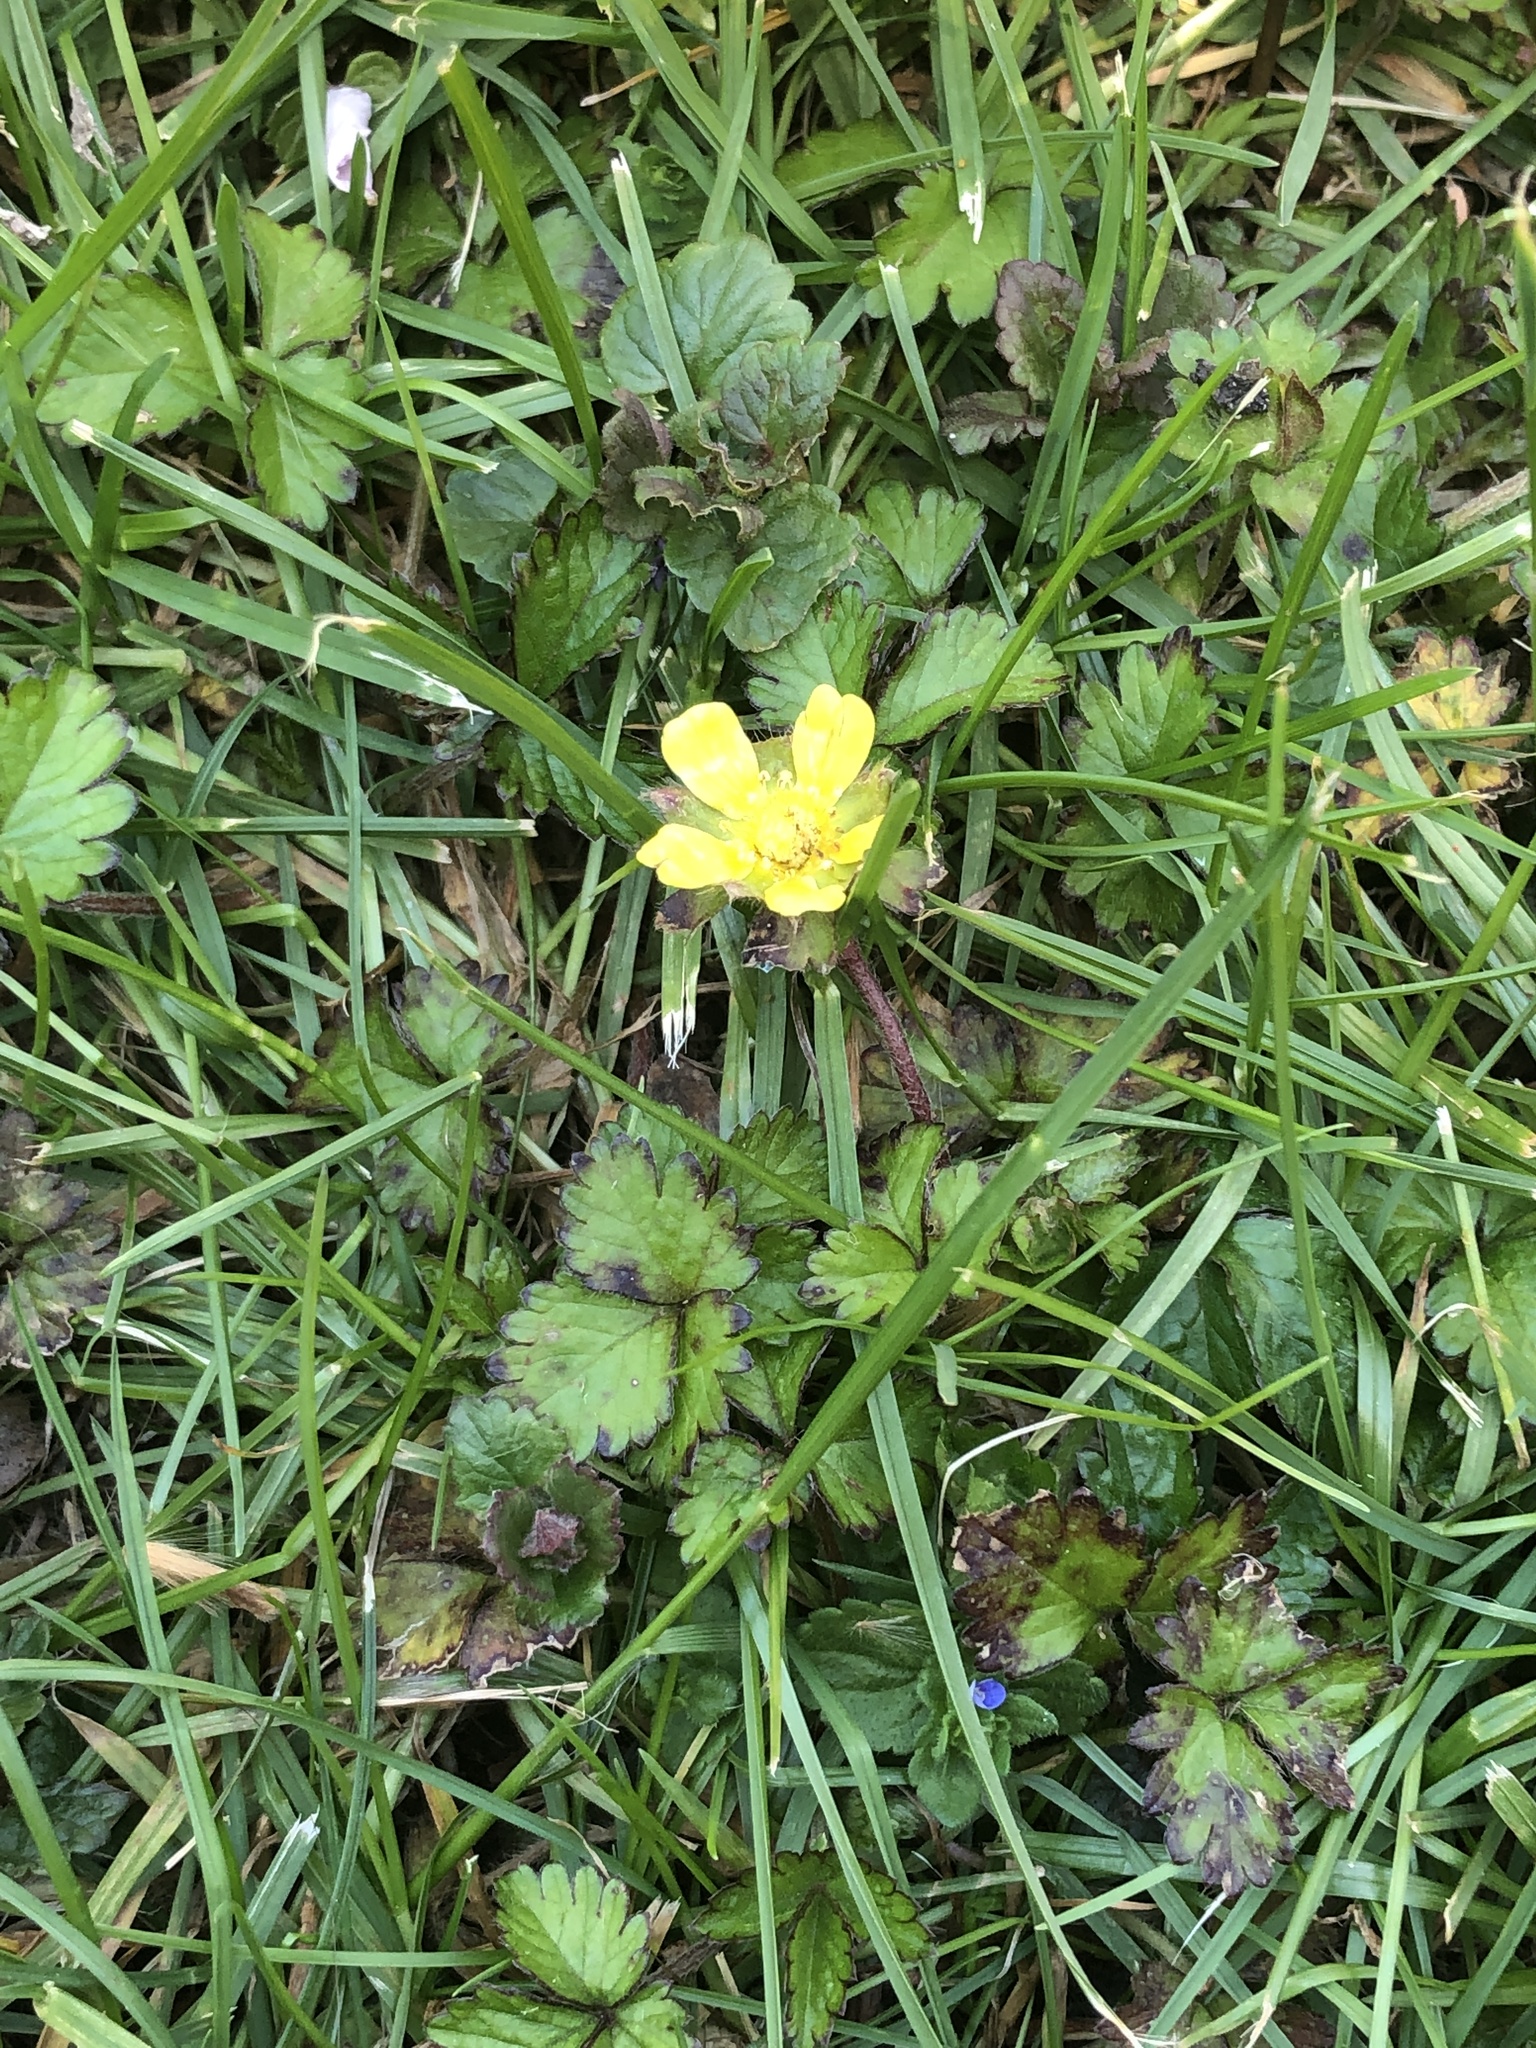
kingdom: Plantae
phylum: Tracheophyta
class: Magnoliopsida
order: Rosales
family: Rosaceae
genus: Potentilla
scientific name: Potentilla indica
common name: Yellow-flowered strawberry
